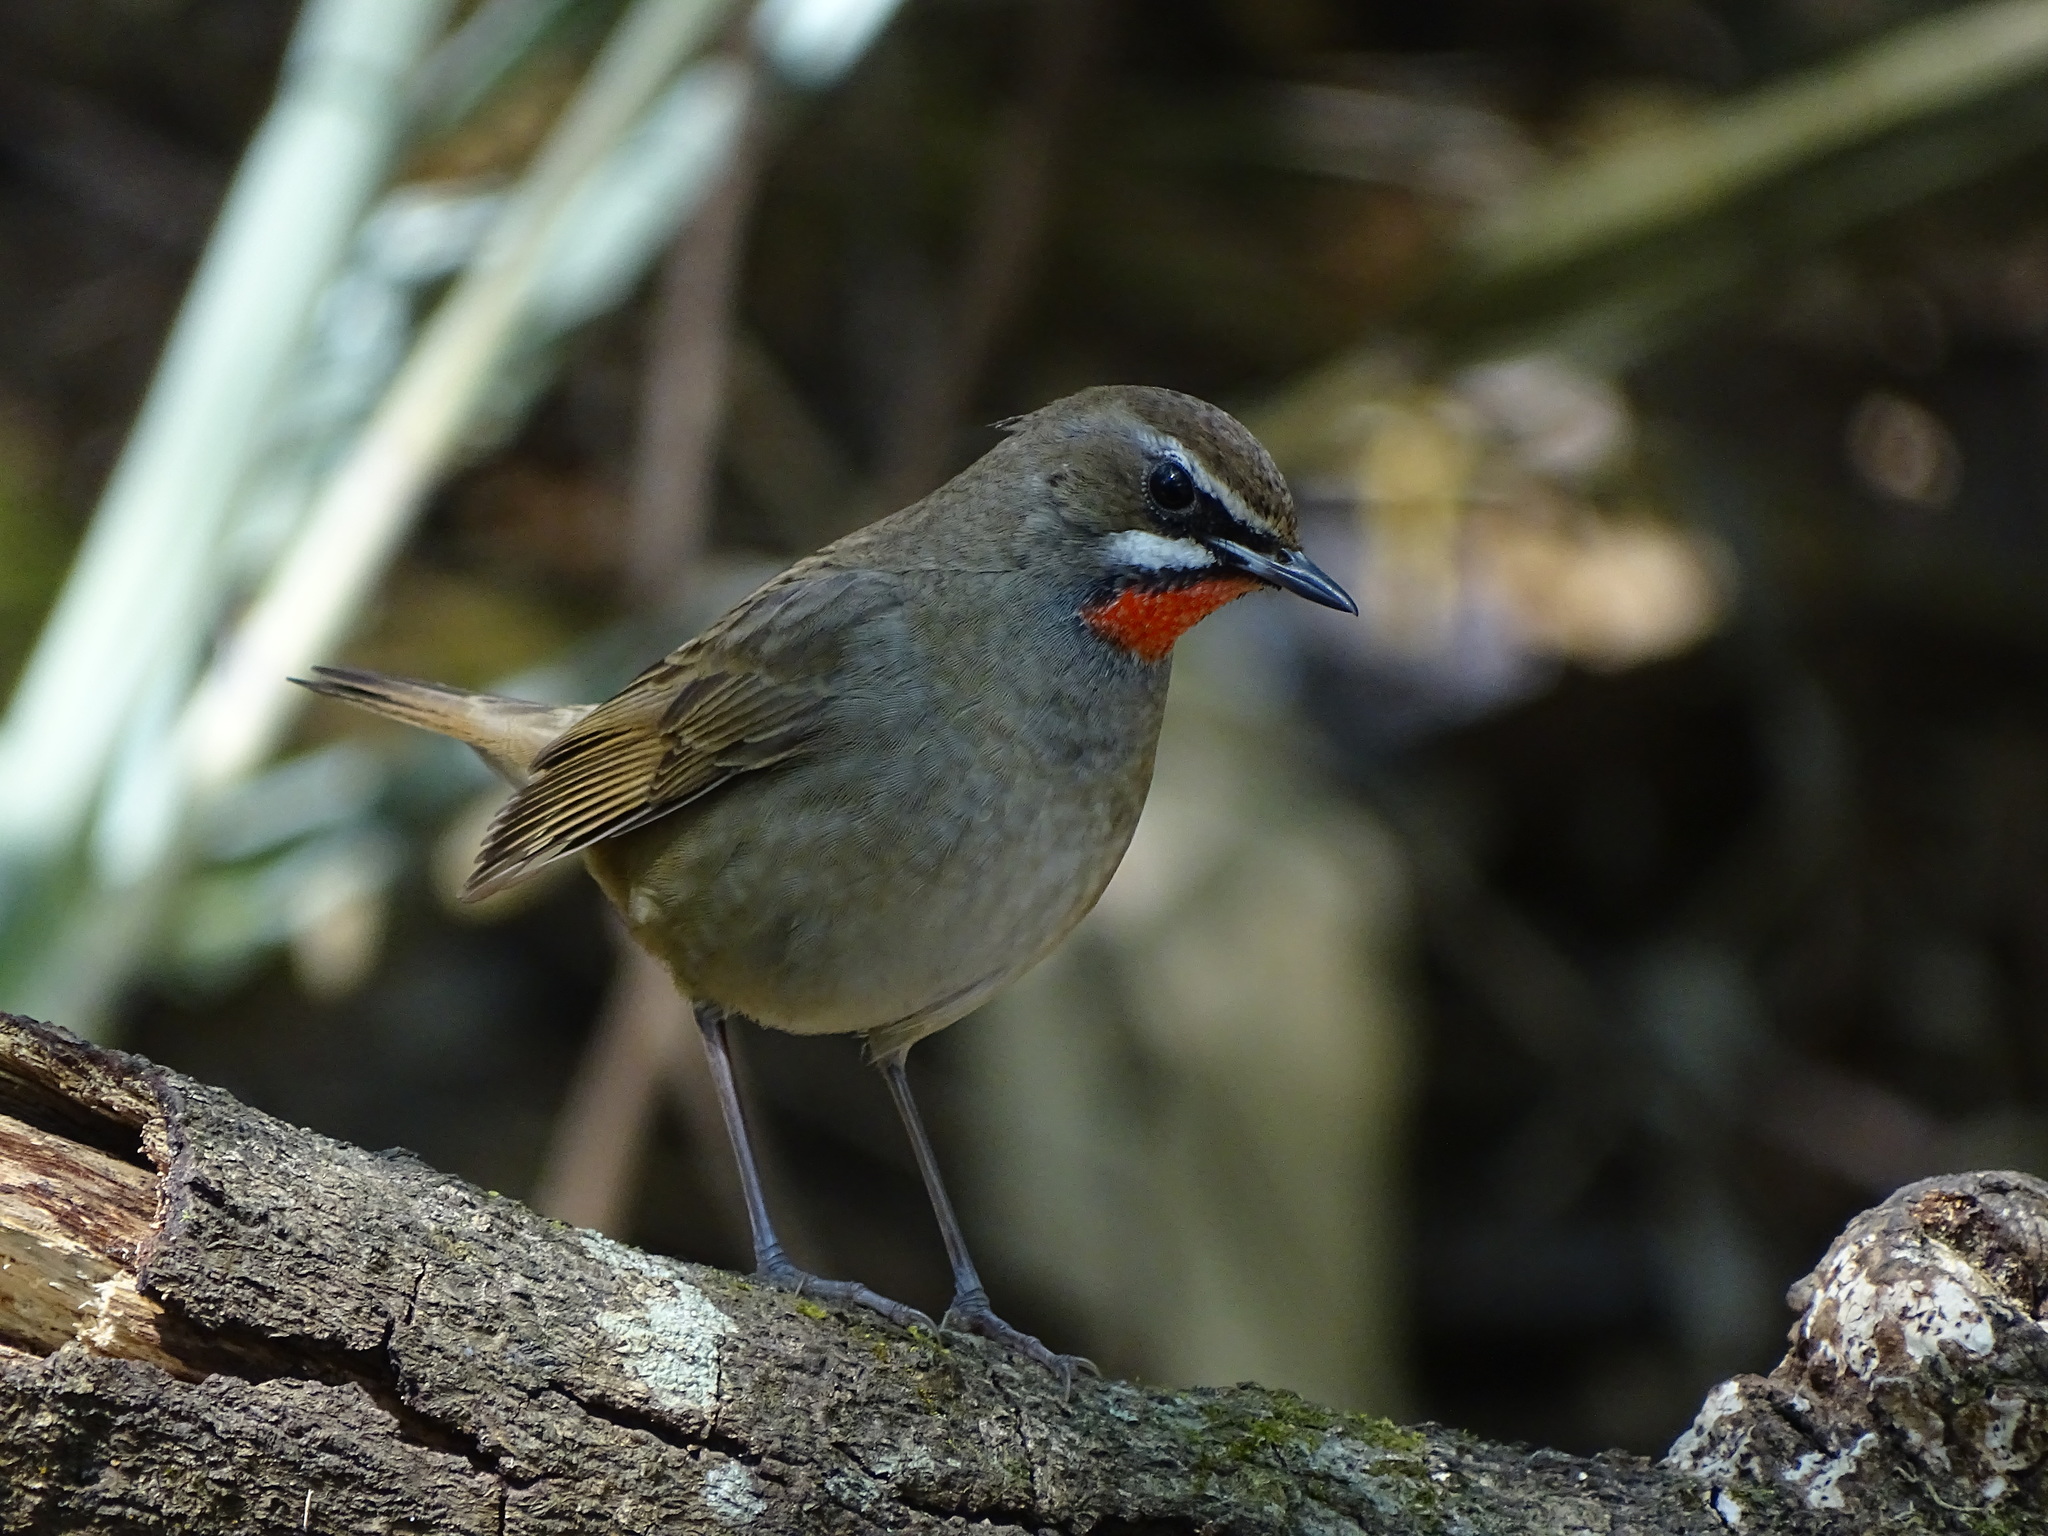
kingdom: Animalia
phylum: Chordata
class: Aves
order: Passeriformes
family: Muscicapidae
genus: Luscinia
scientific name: Luscinia calliope
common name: Siberian rubythroat
